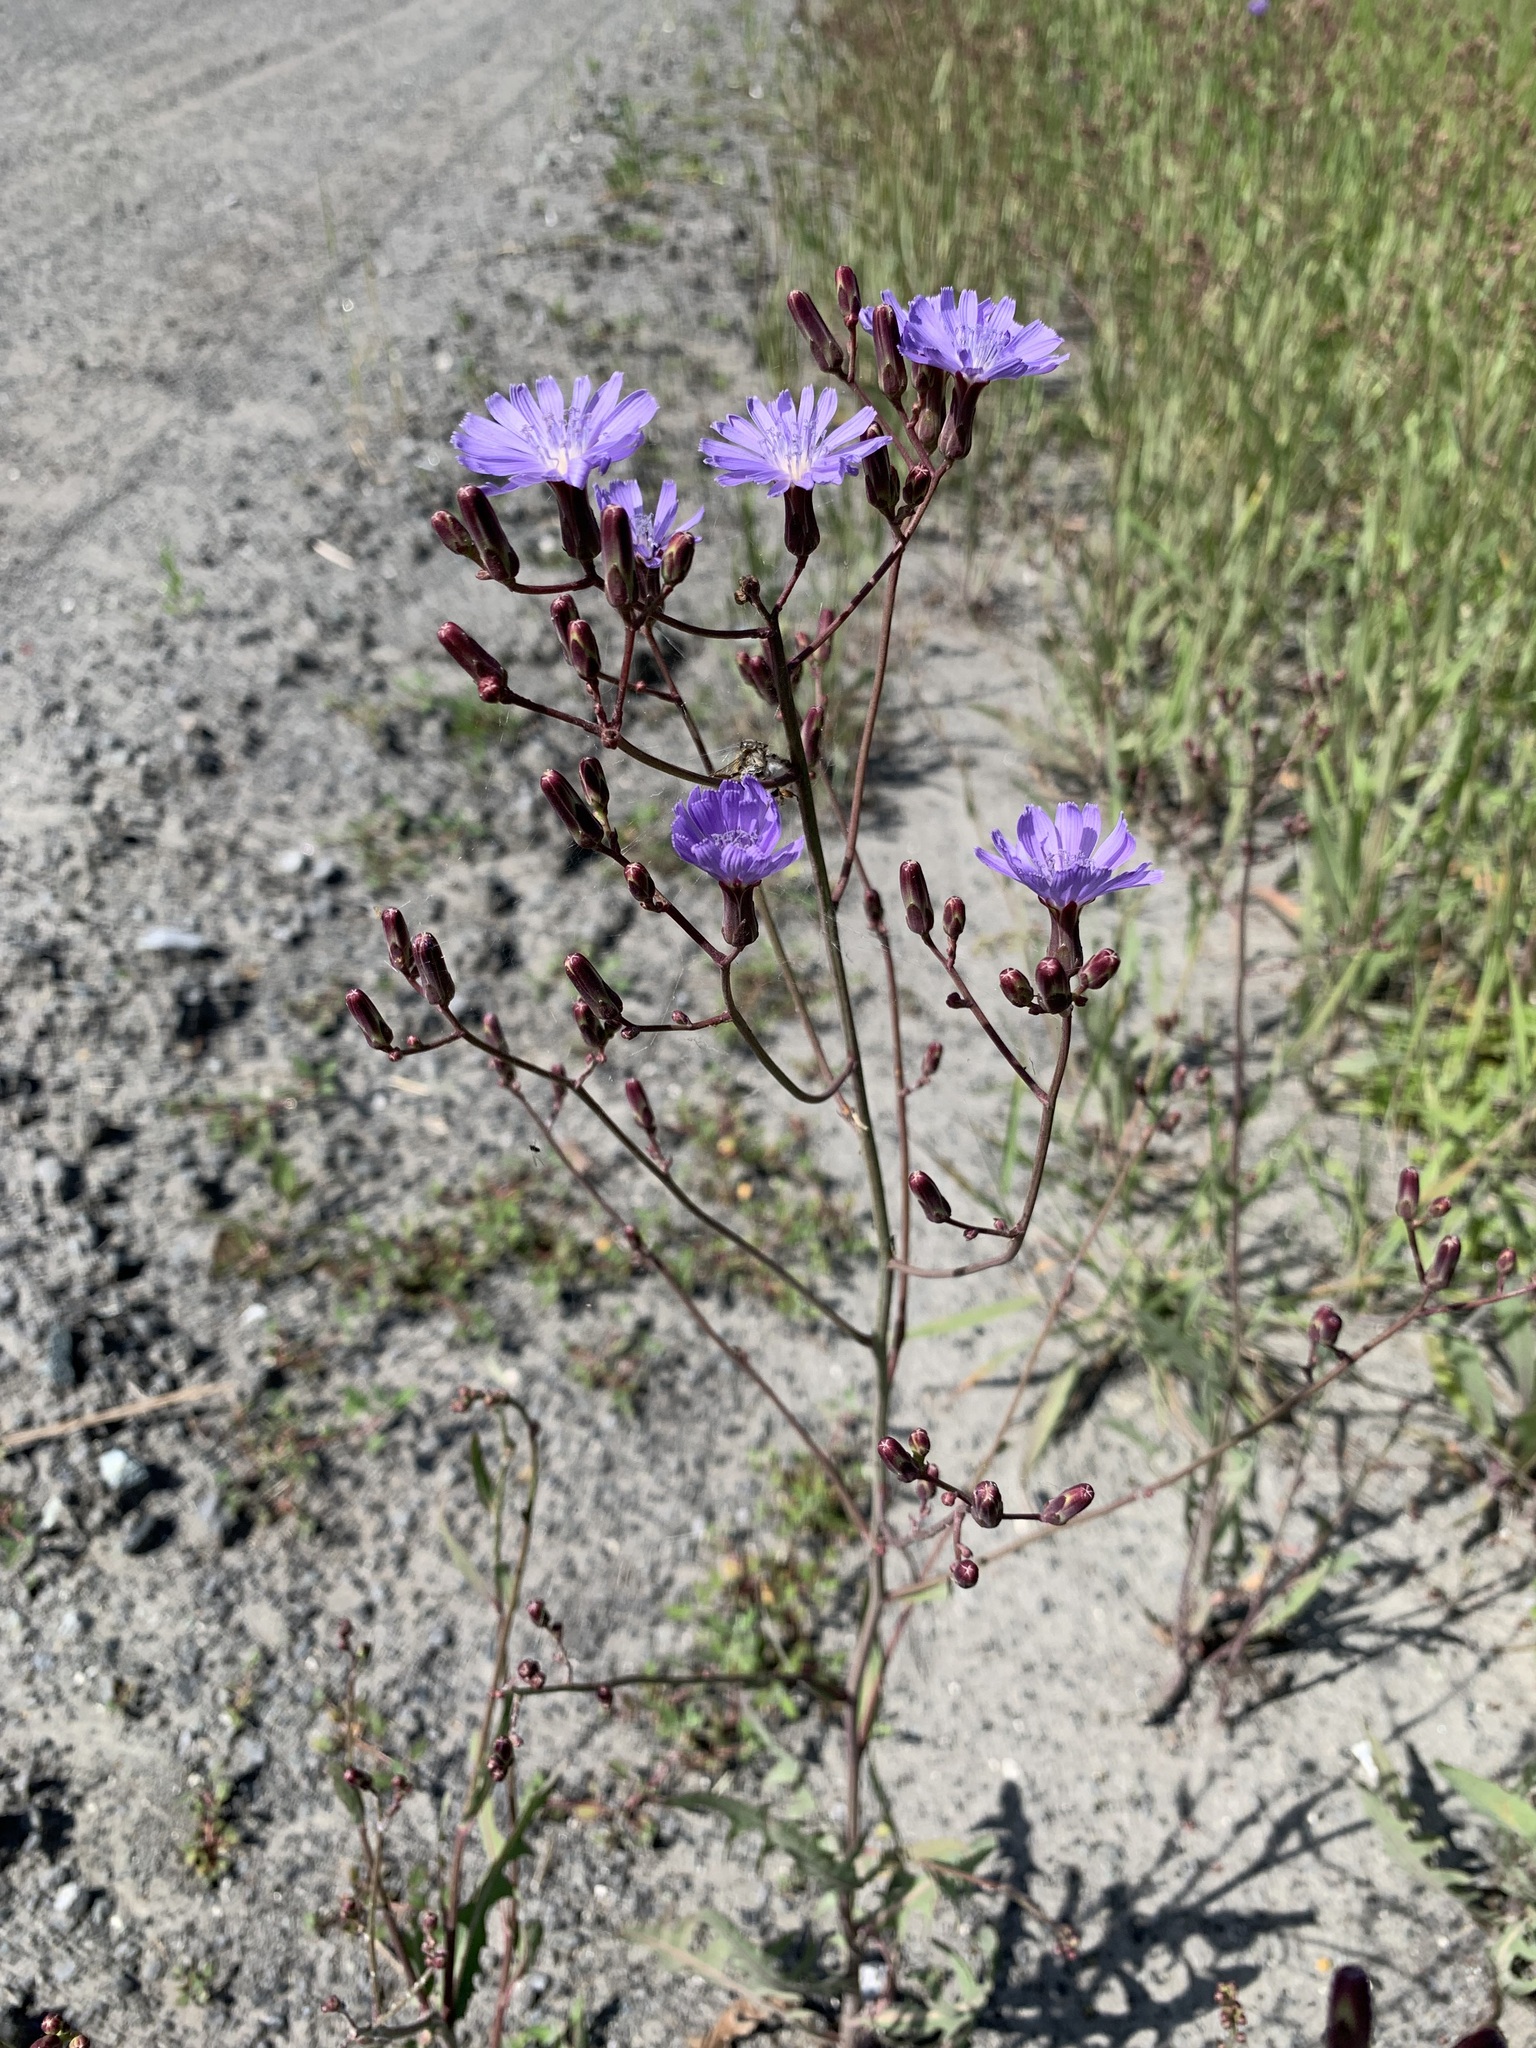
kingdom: Plantae
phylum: Tracheophyta
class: Magnoliopsida
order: Asterales
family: Asteraceae
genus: Lactuca
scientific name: Lactuca tatarica
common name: Blue lettuce
